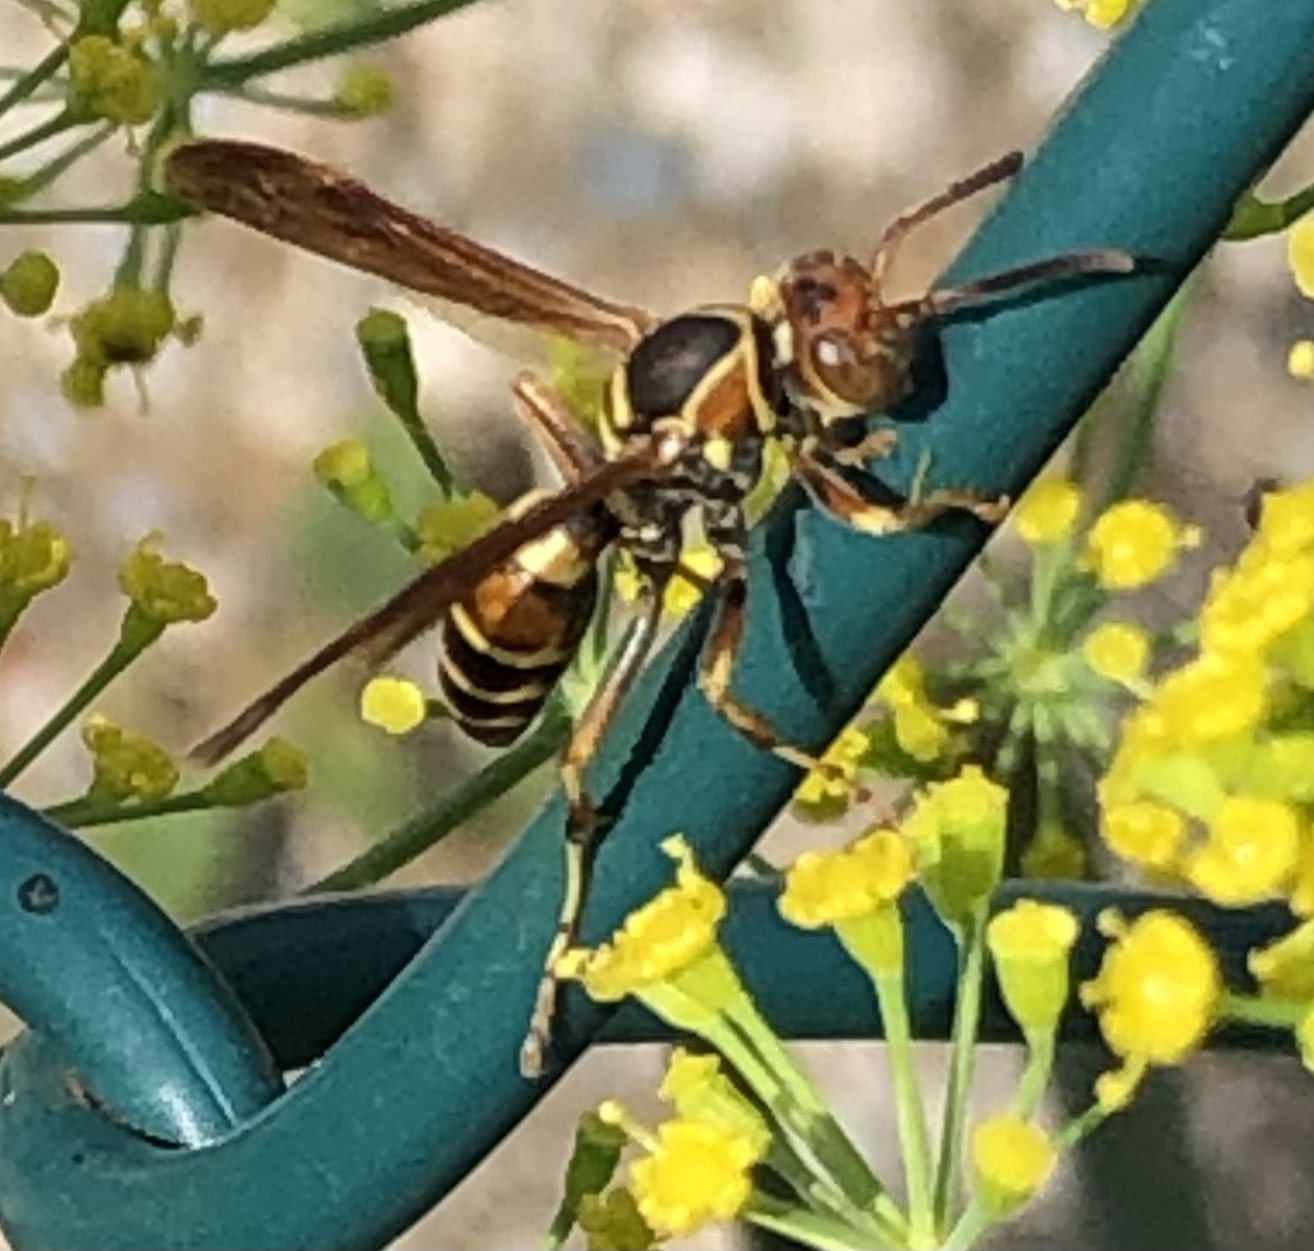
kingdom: Animalia
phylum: Arthropoda
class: Insecta
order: Hymenoptera
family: Eumenidae
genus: Polistes
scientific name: Polistes dorsalis
